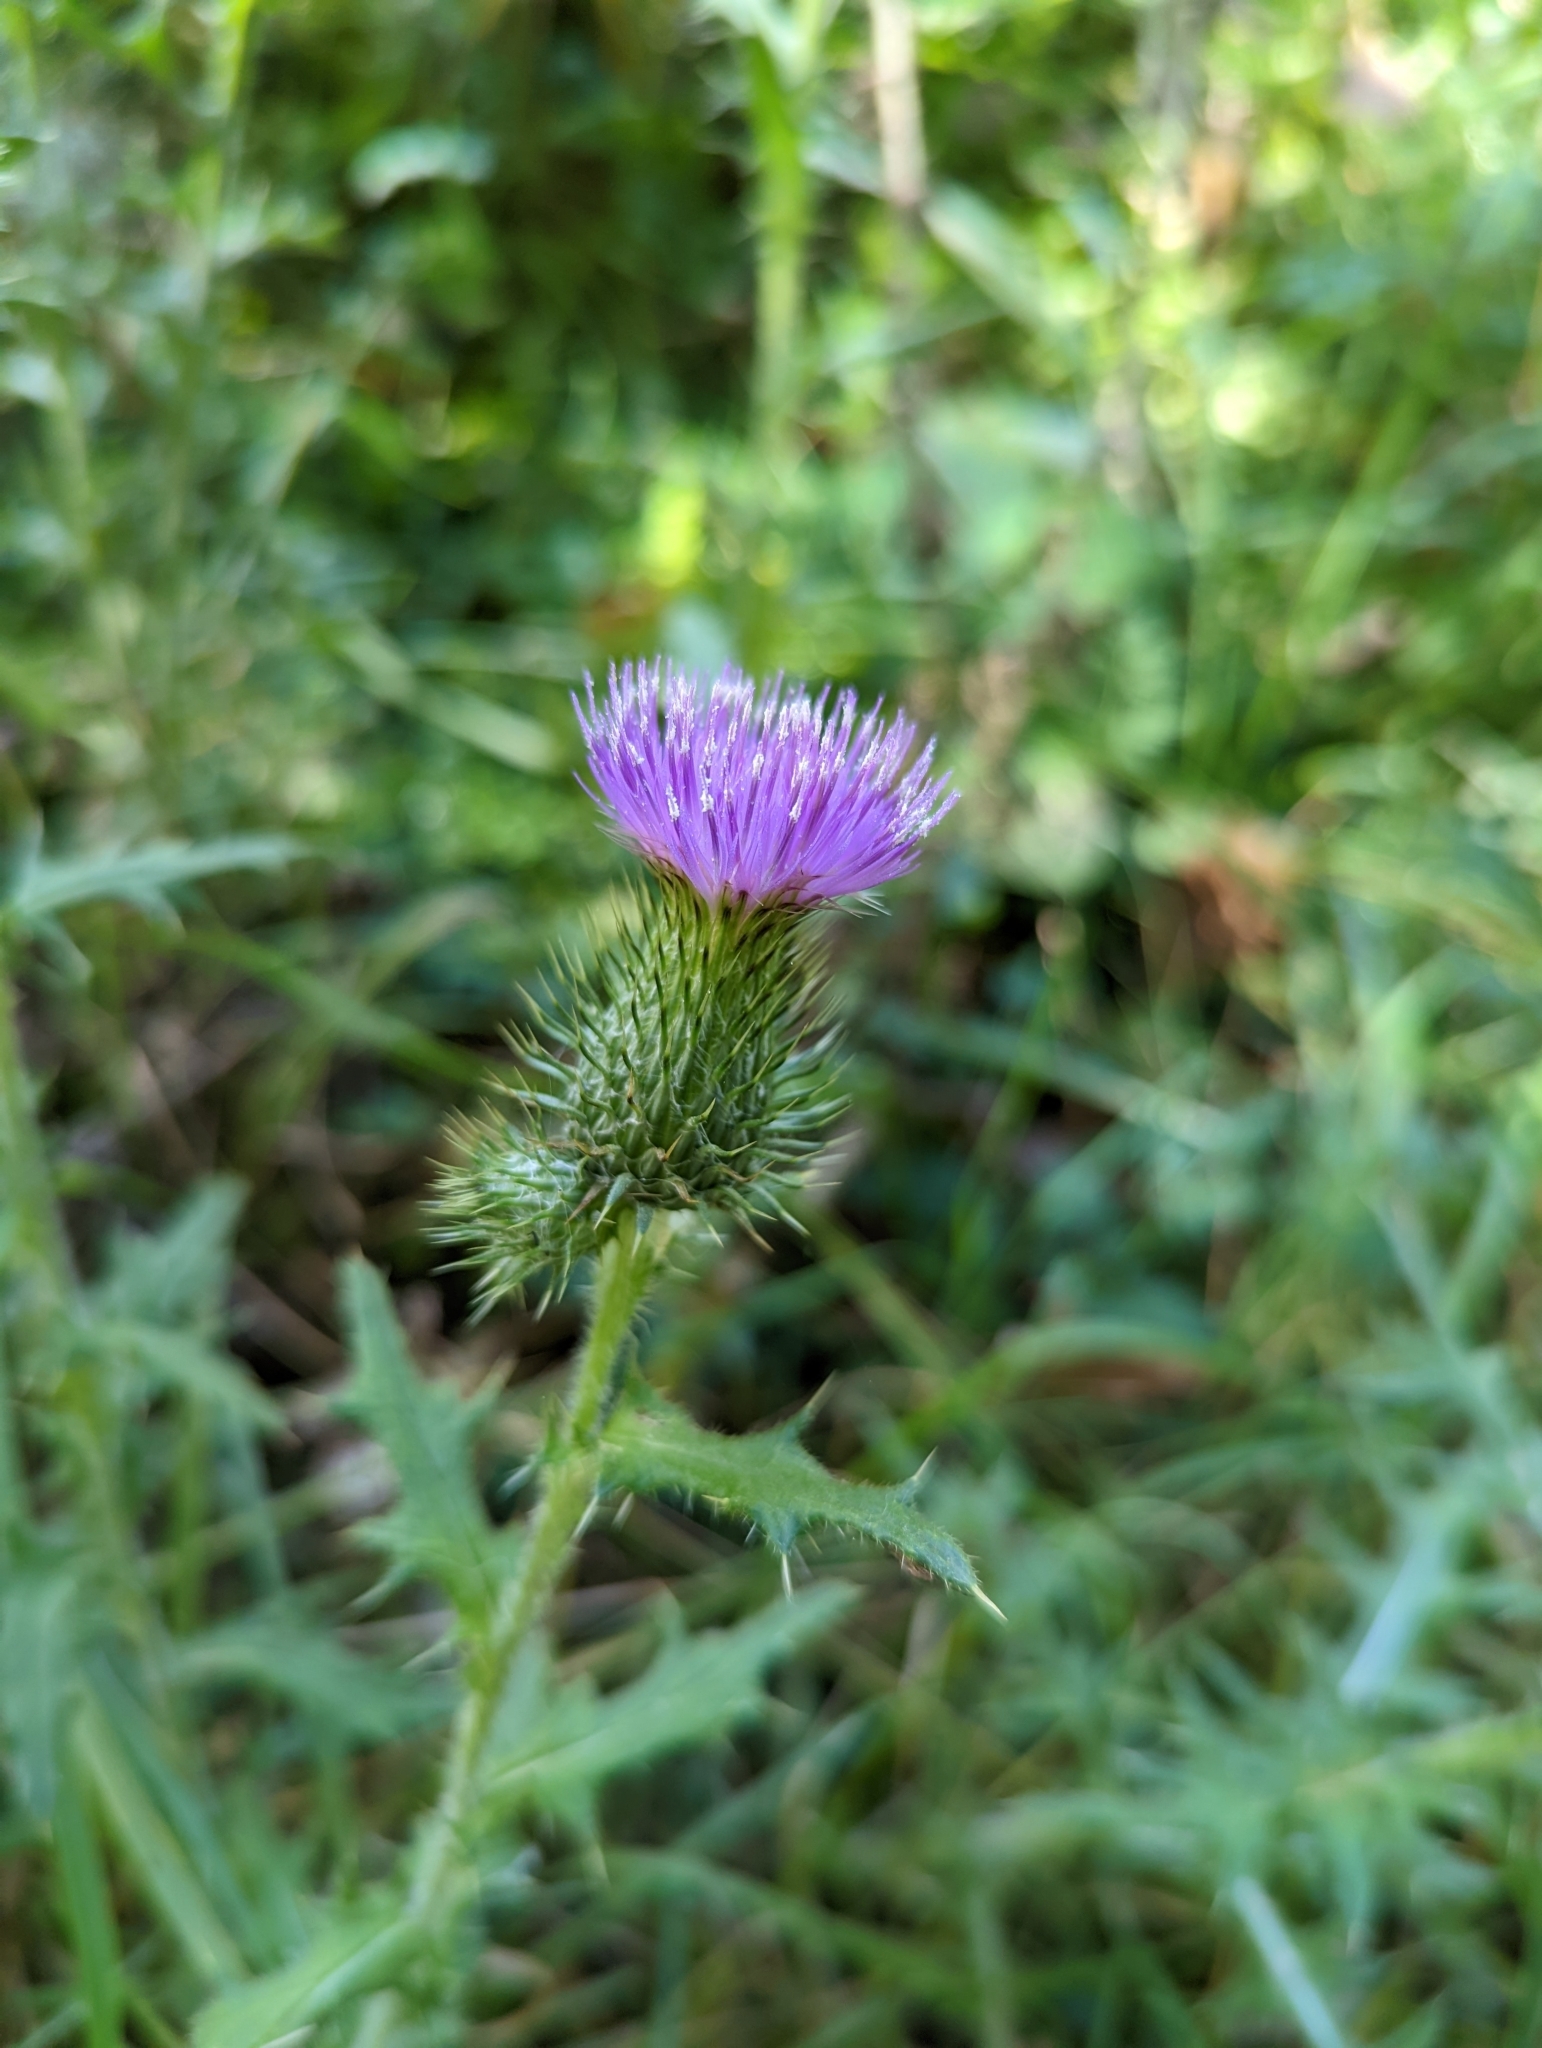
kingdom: Plantae
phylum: Tracheophyta
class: Magnoliopsida
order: Asterales
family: Asteraceae
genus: Cirsium
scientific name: Cirsium vulgare
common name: Bull thistle
